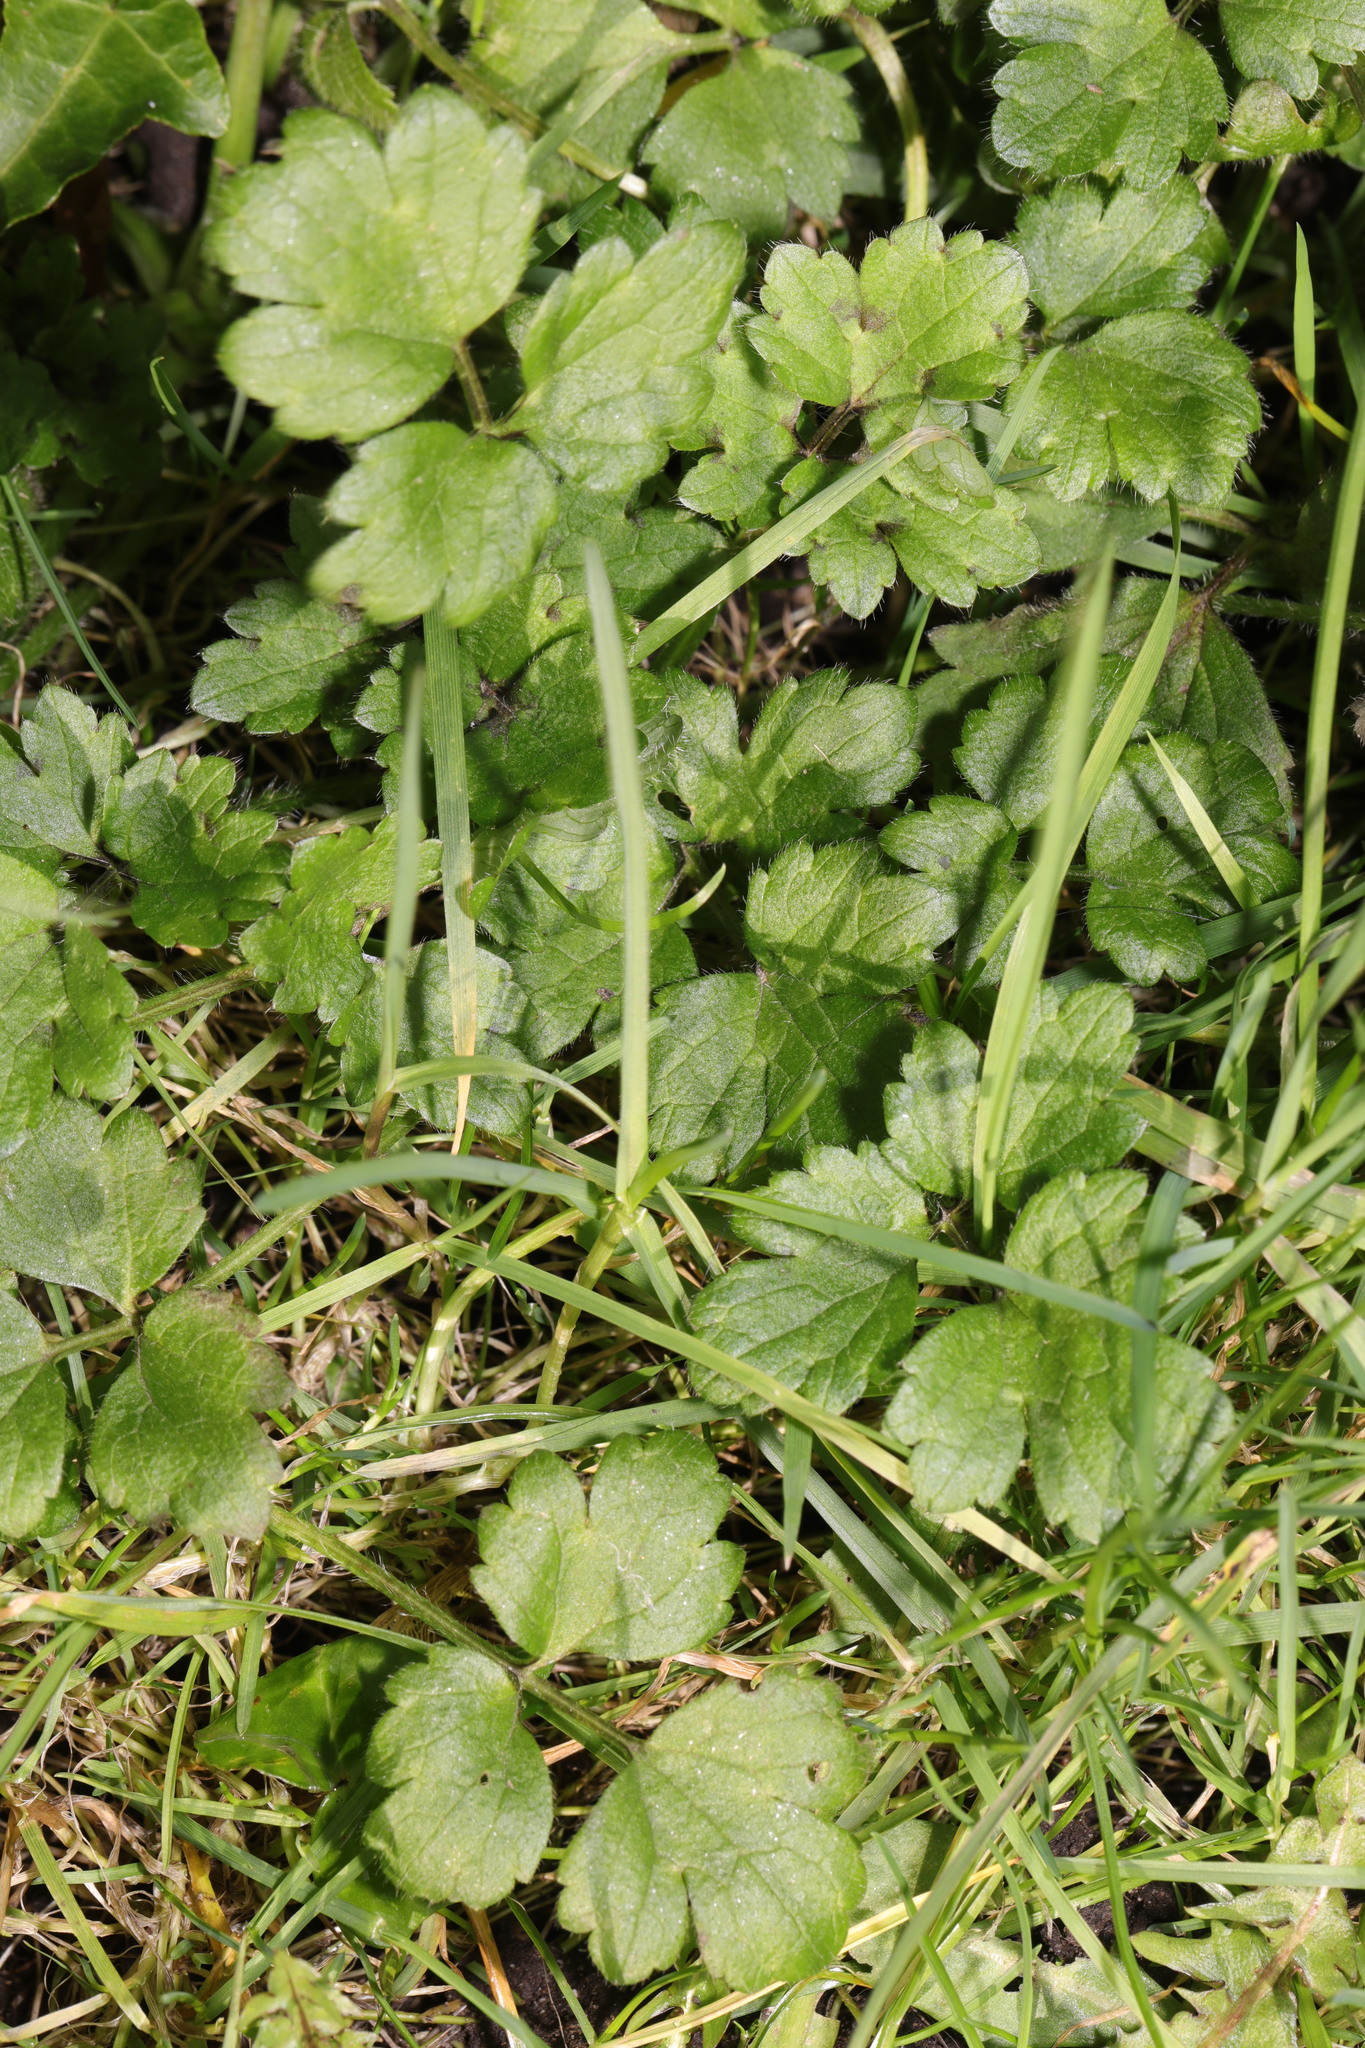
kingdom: Plantae
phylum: Tracheophyta
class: Magnoliopsida
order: Ranunculales
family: Ranunculaceae
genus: Ranunculus
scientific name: Ranunculus repens
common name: Creeping buttercup
